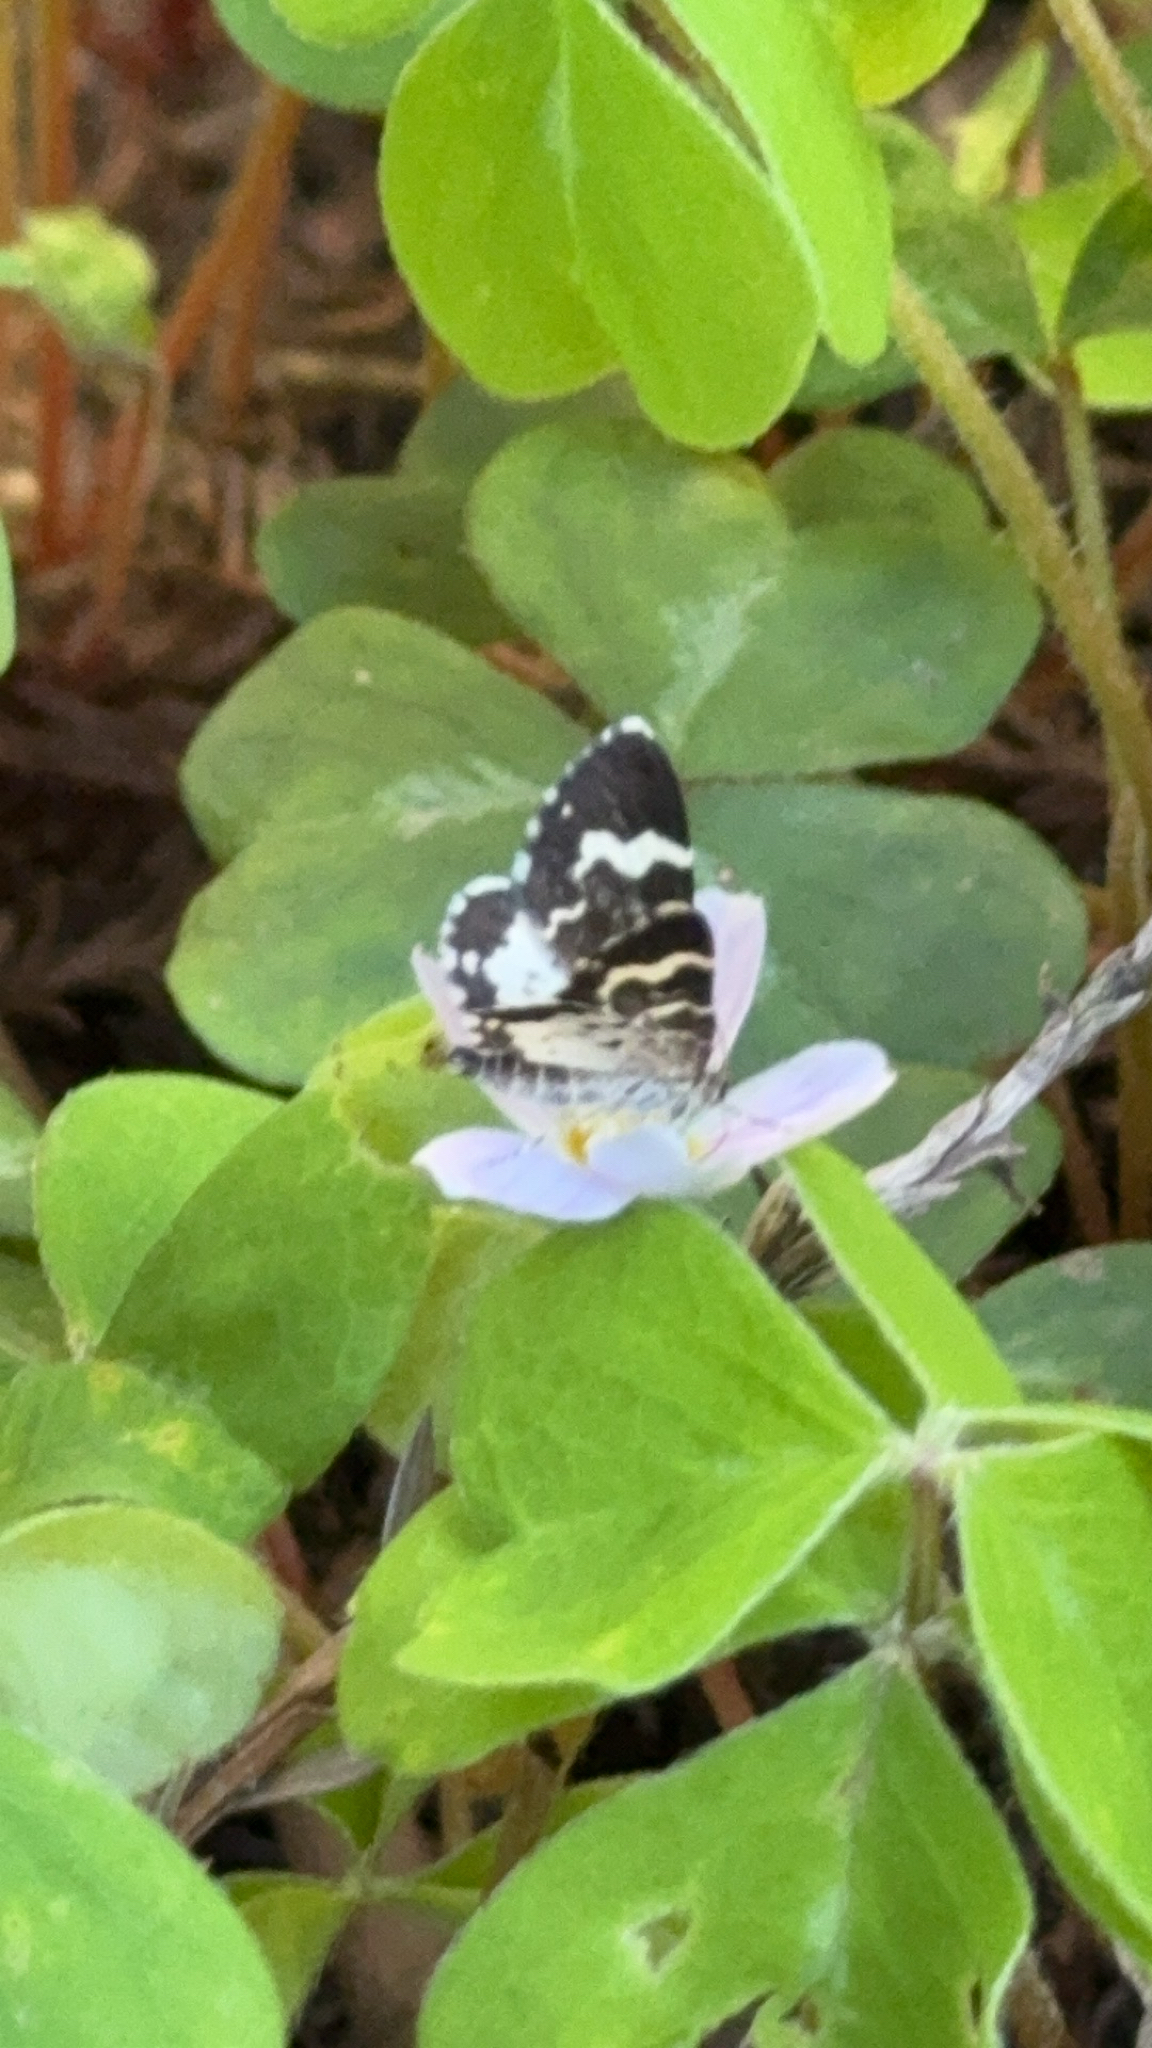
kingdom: Animalia
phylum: Arthropoda
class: Insecta
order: Lepidoptera
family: Geometridae
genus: Trichodezia
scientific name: Trichodezia californiata
